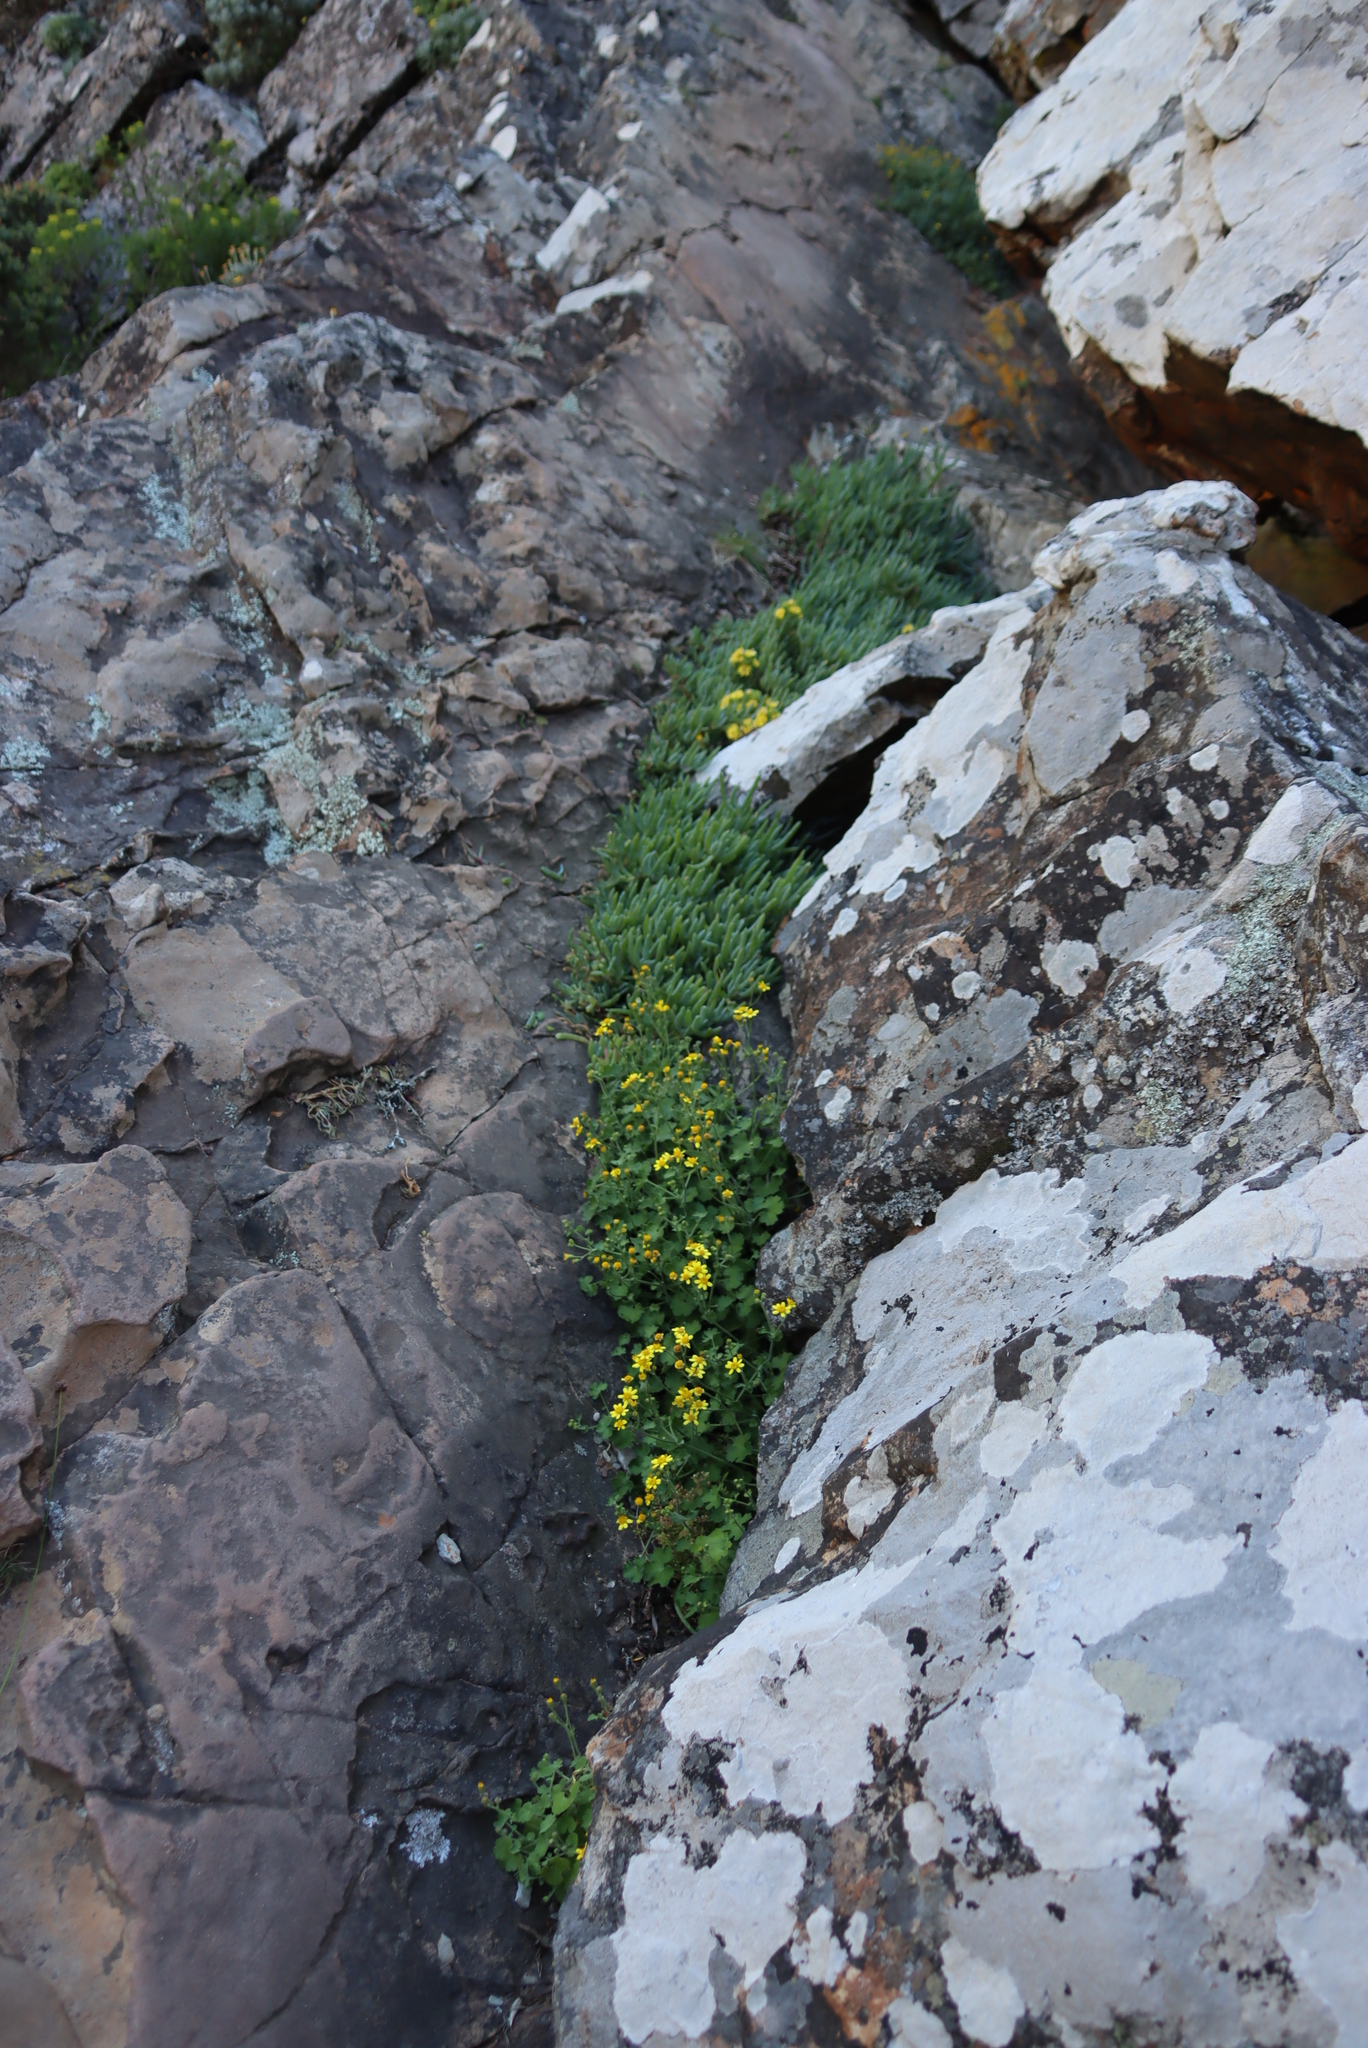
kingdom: Plantae
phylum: Tracheophyta
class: Magnoliopsida
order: Asterales
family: Asteraceae
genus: Cineraria
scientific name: Cineraria geifolia
